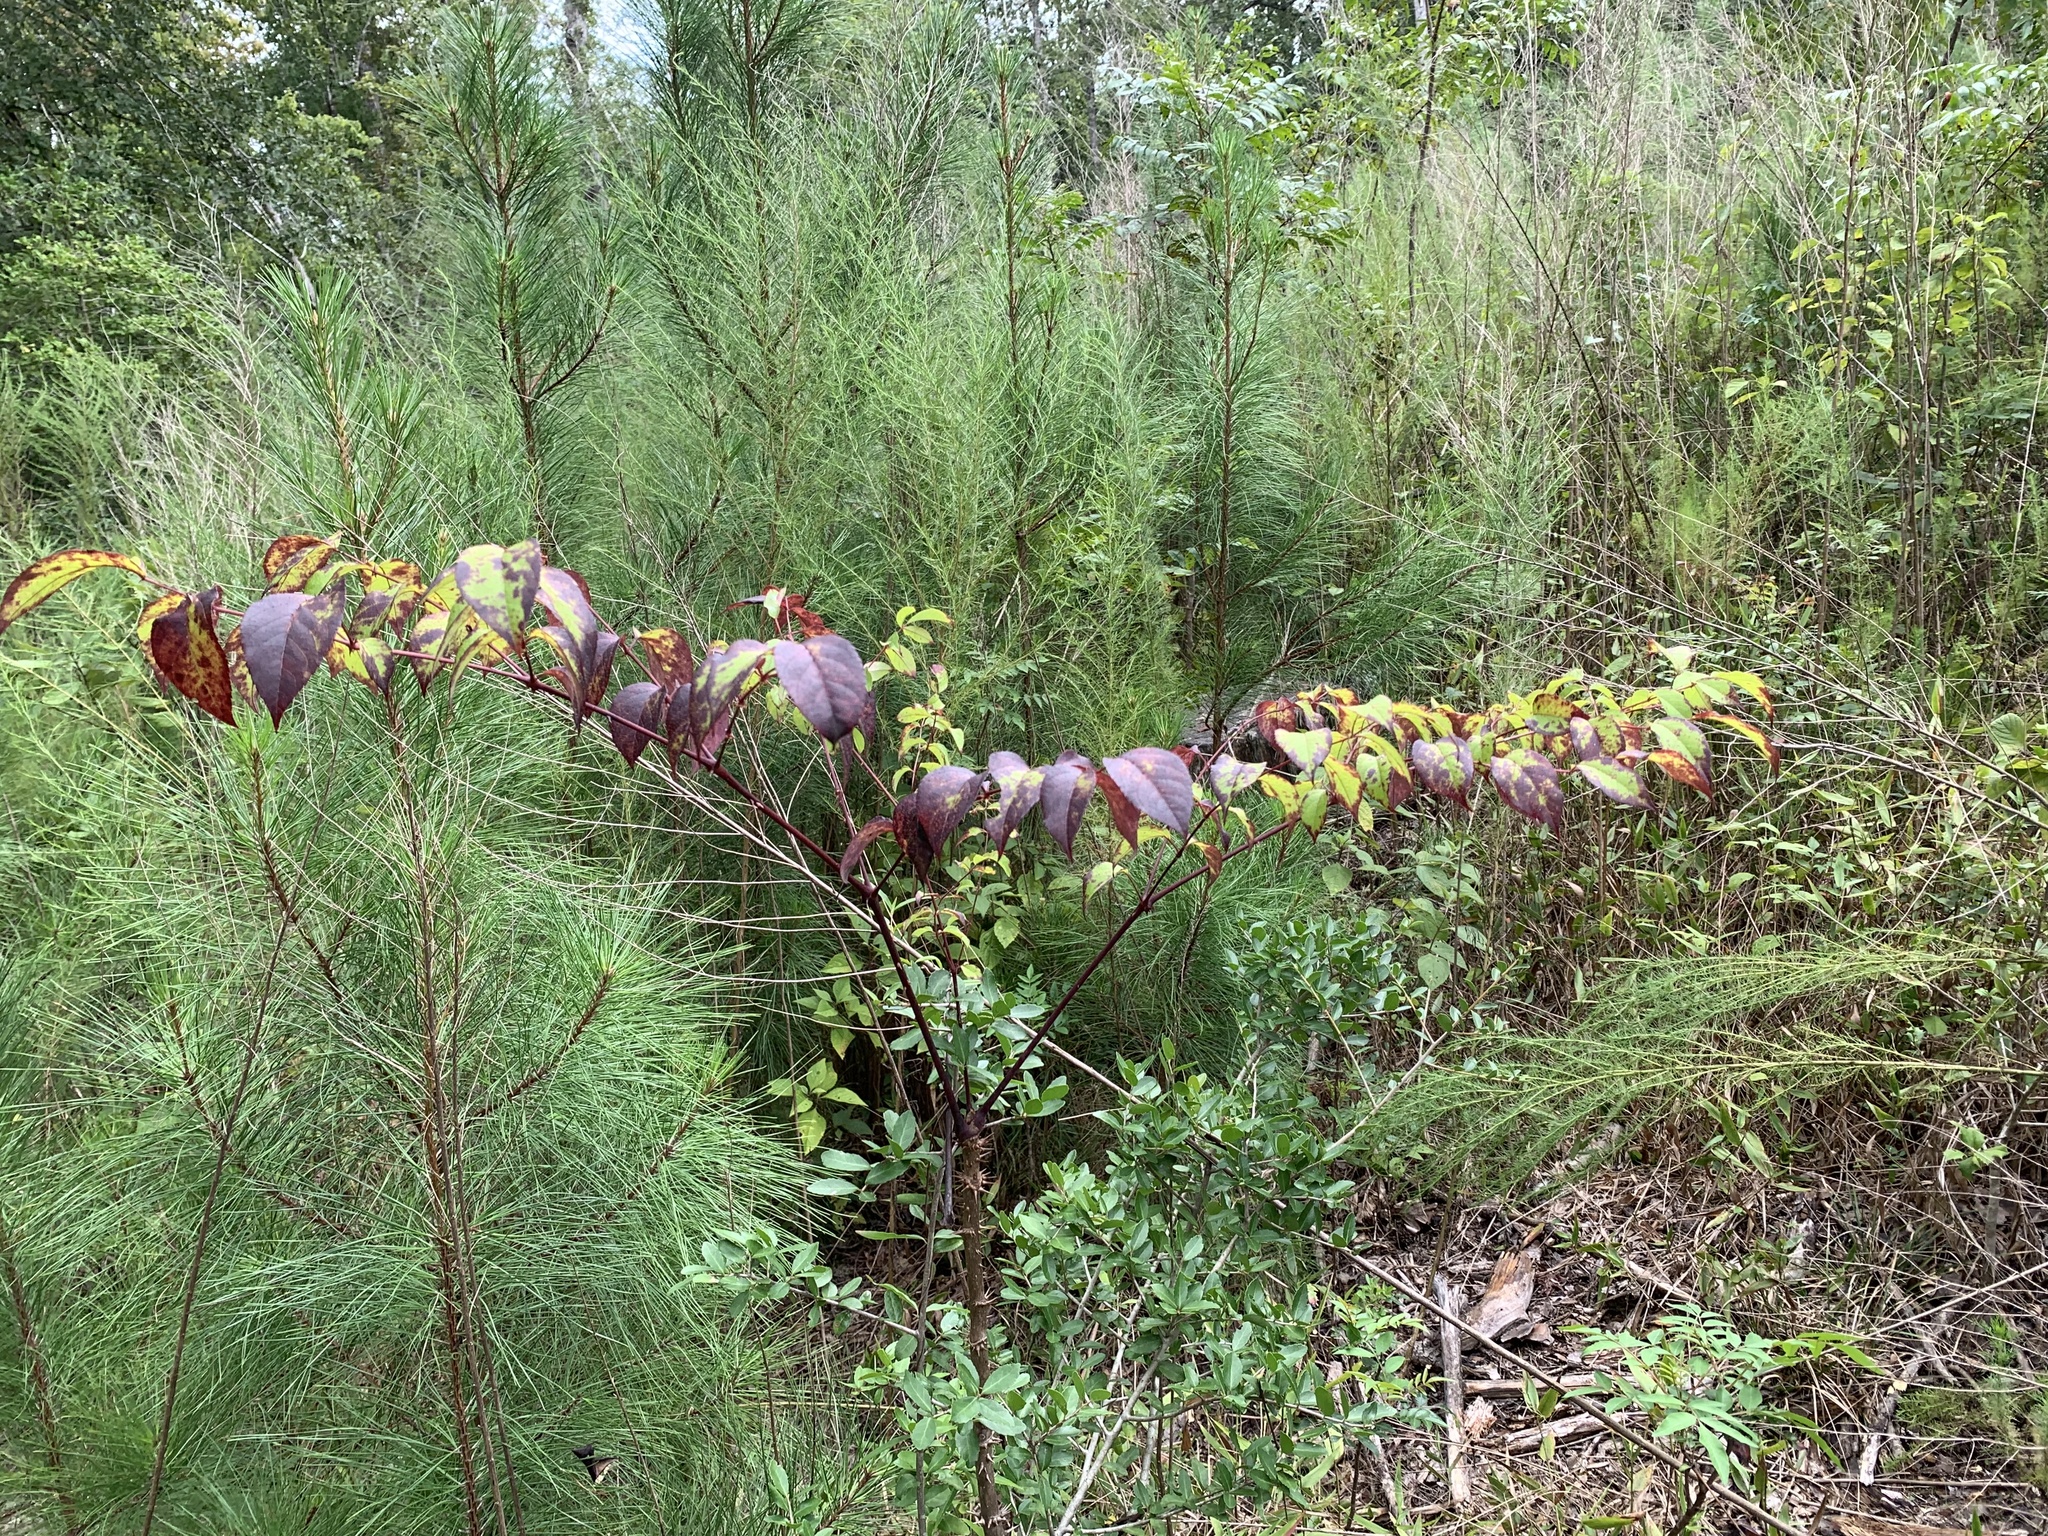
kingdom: Plantae
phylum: Tracheophyta
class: Magnoliopsida
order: Apiales
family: Araliaceae
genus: Aralia
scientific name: Aralia spinosa
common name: Hercules'-club
